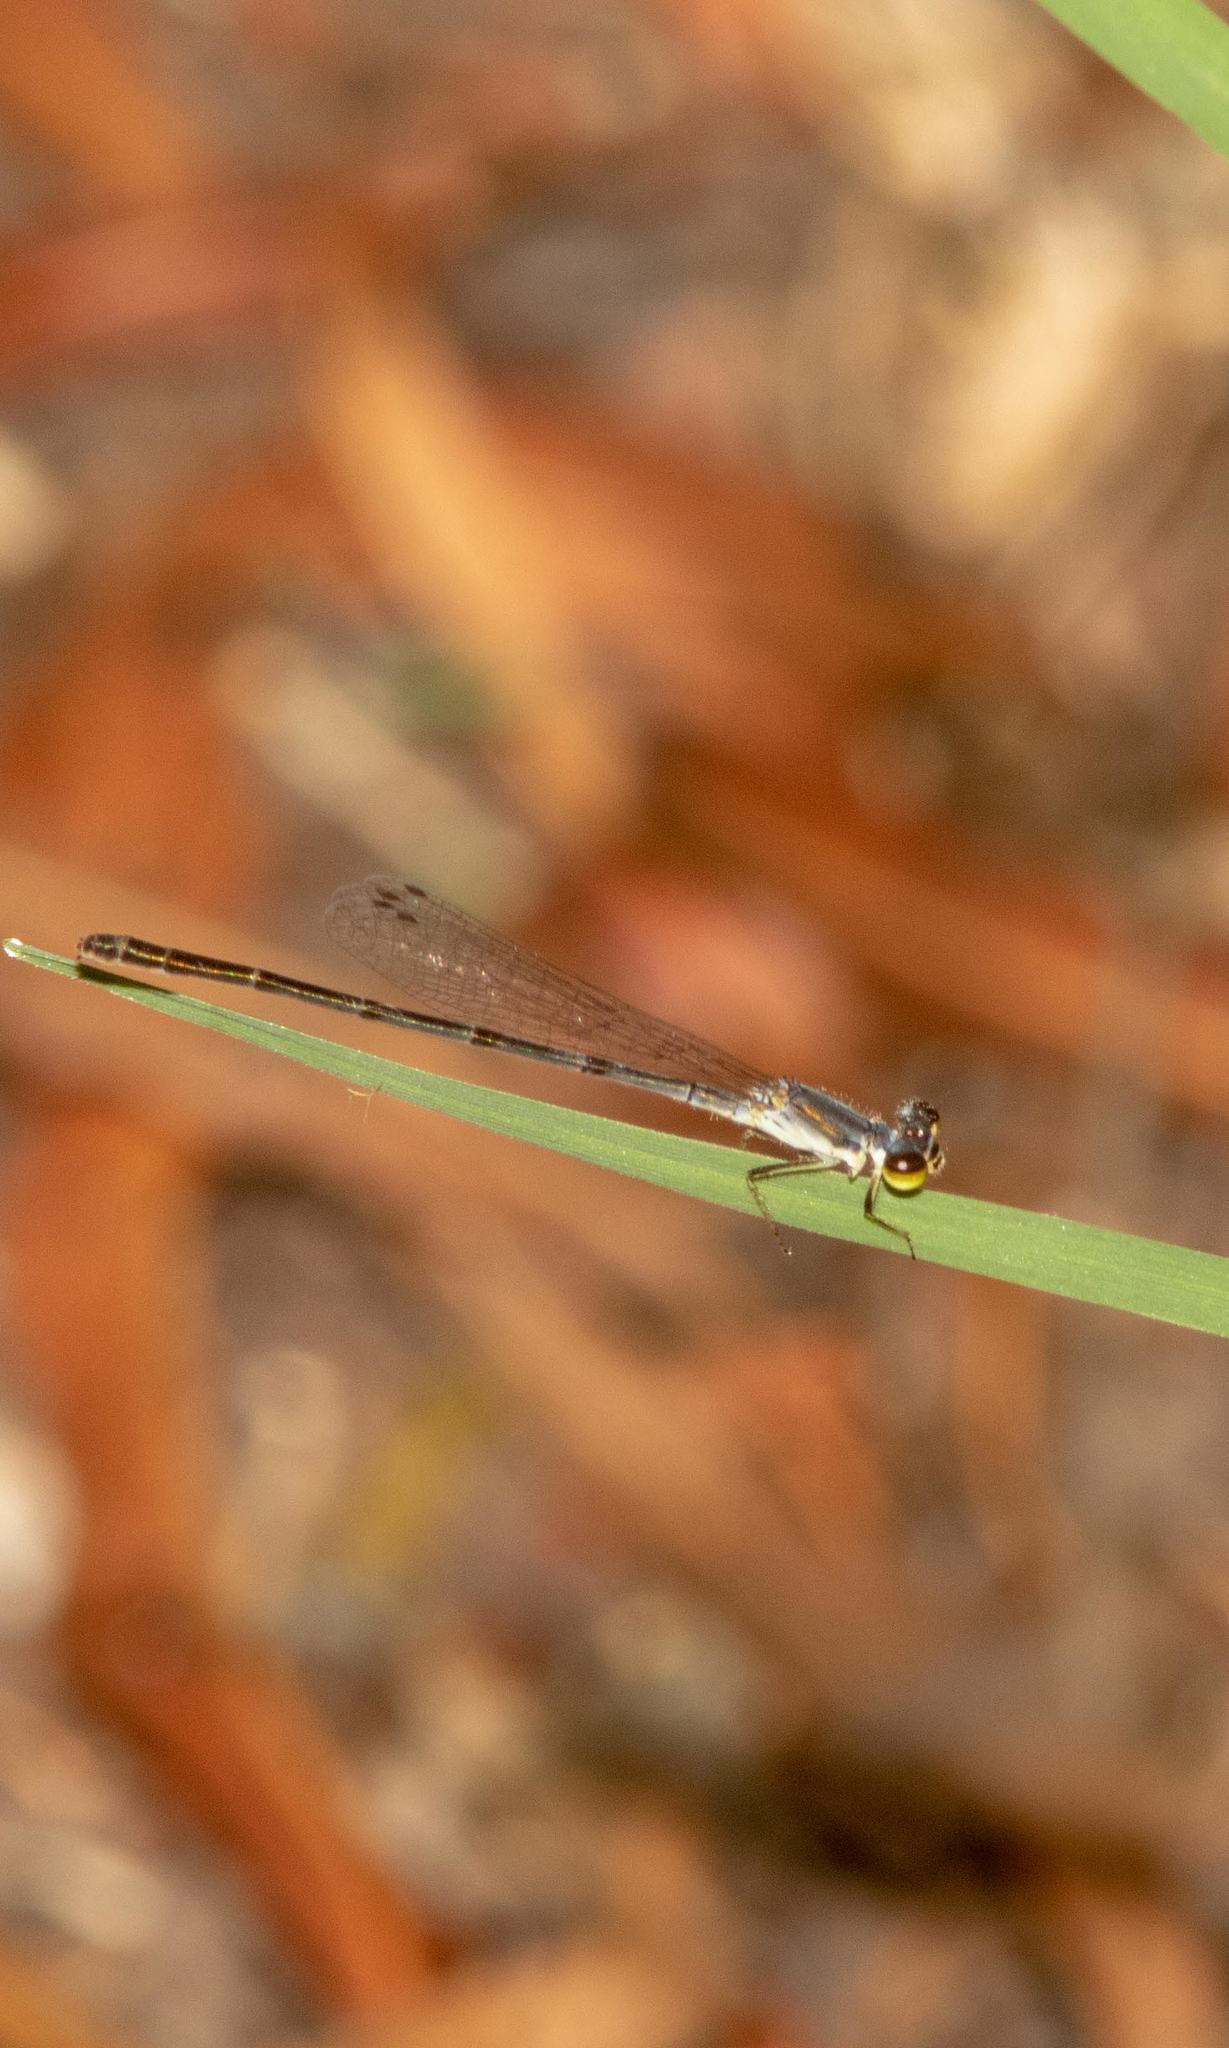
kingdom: Animalia
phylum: Arthropoda
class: Insecta
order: Odonata
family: Coenagrionidae
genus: Ischnura
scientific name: Ischnura posita
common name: Fragile forktail
